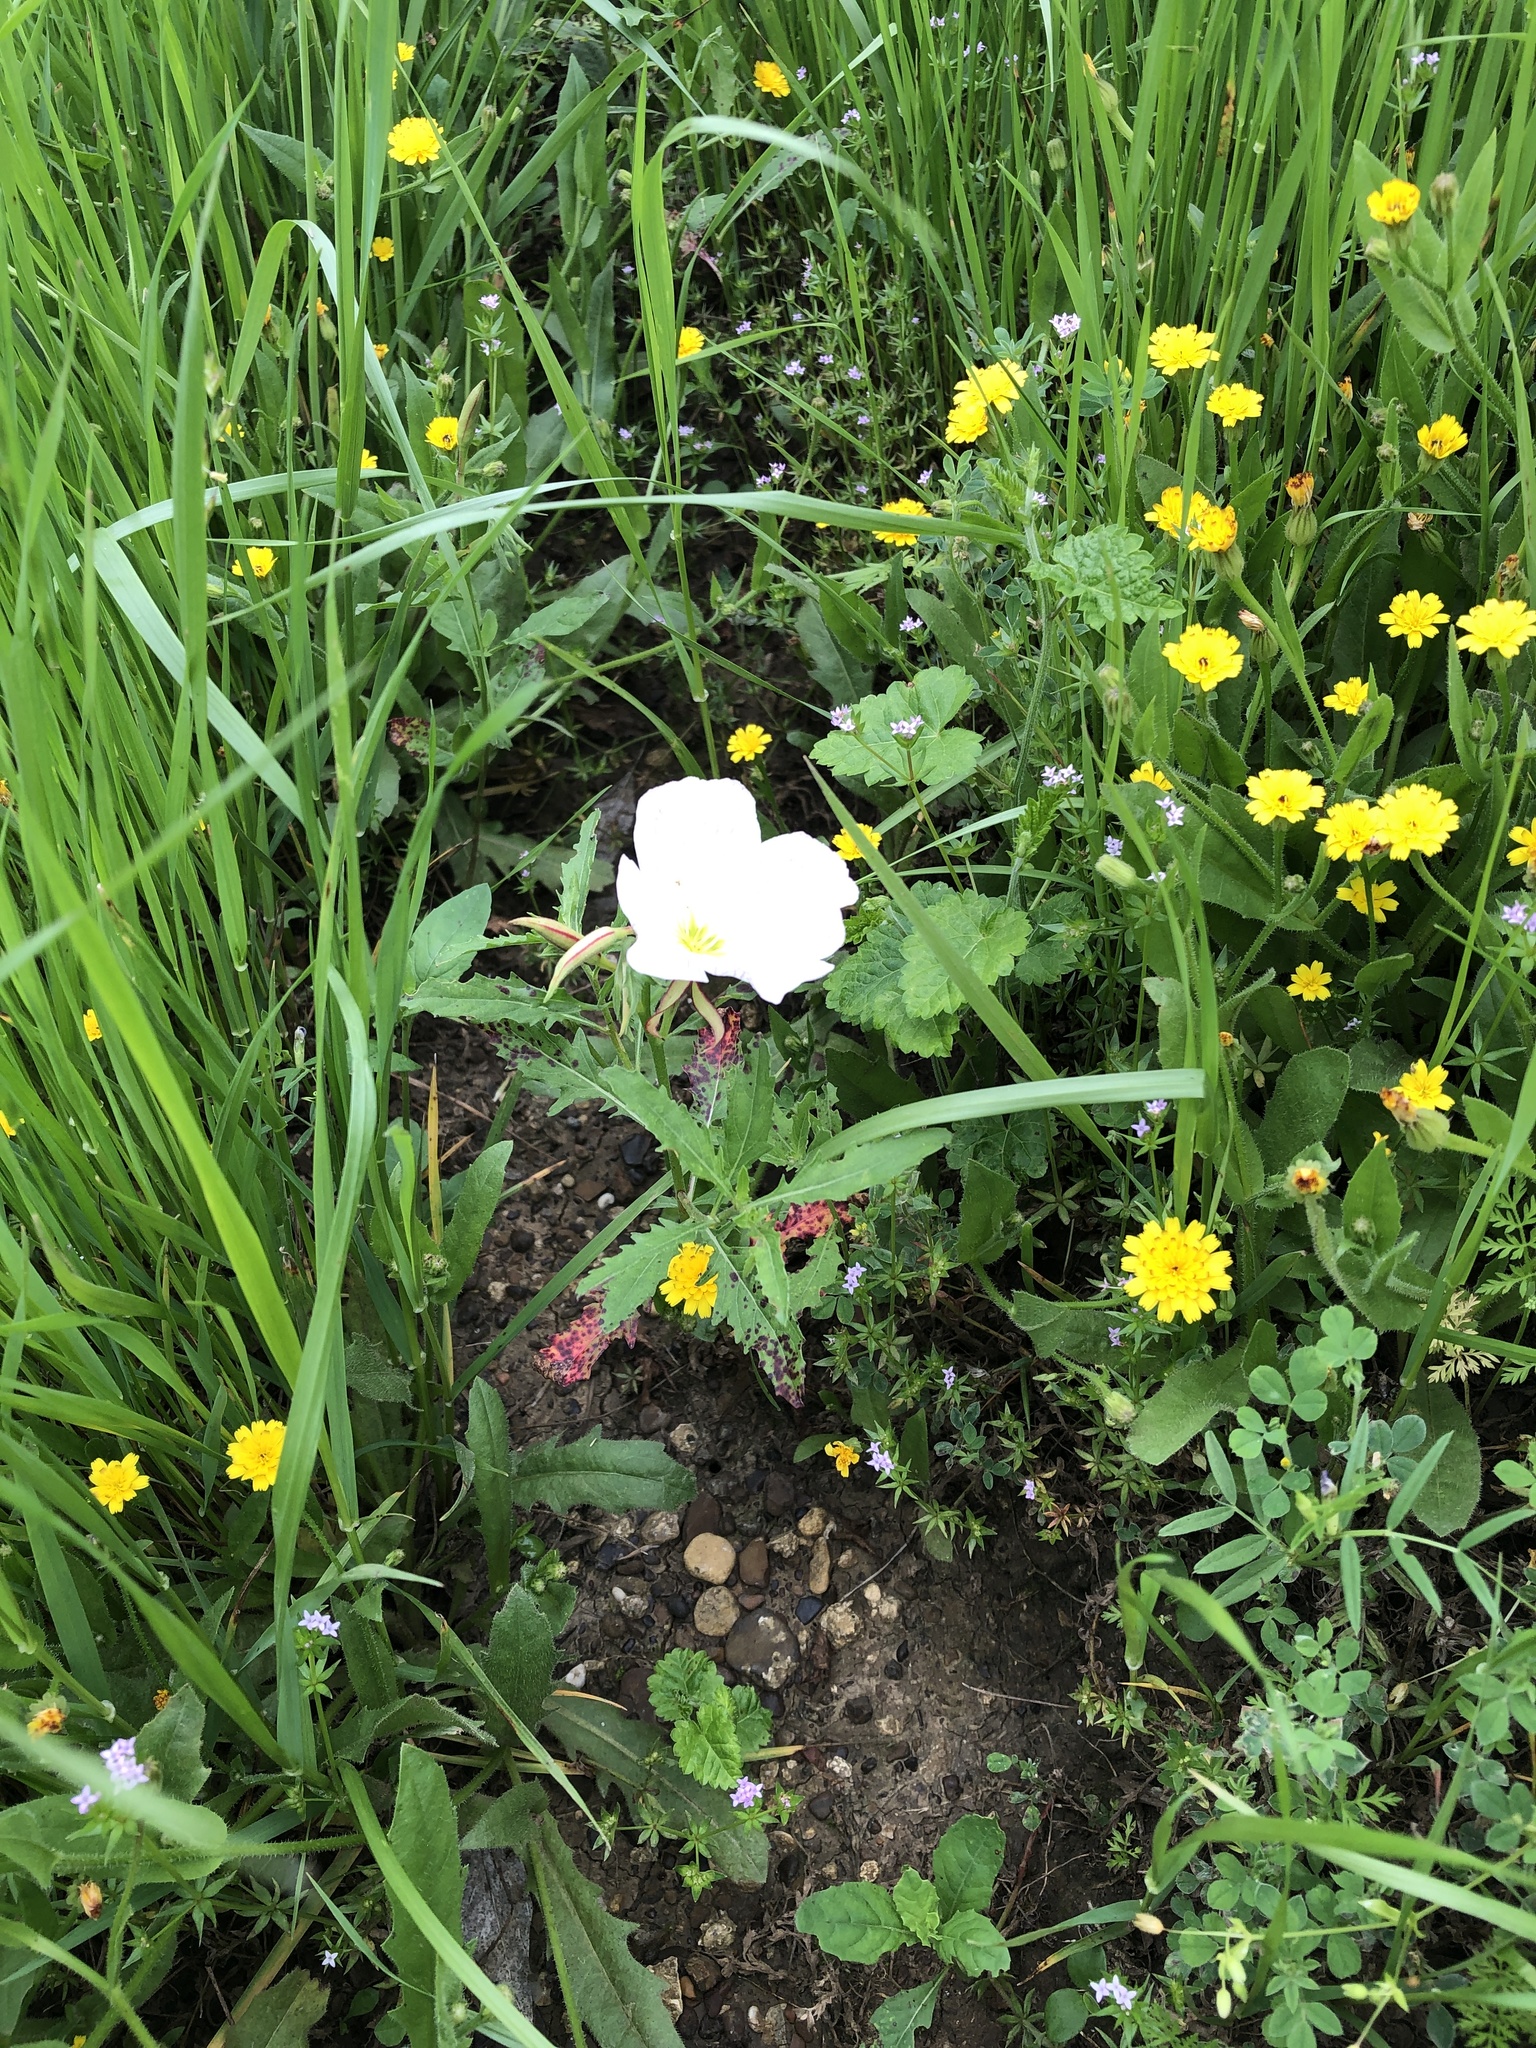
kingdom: Plantae
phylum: Tracheophyta
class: Magnoliopsida
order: Myrtales
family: Onagraceae
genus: Oenothera
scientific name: Oenothera speciosa
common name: White evening-primrose
